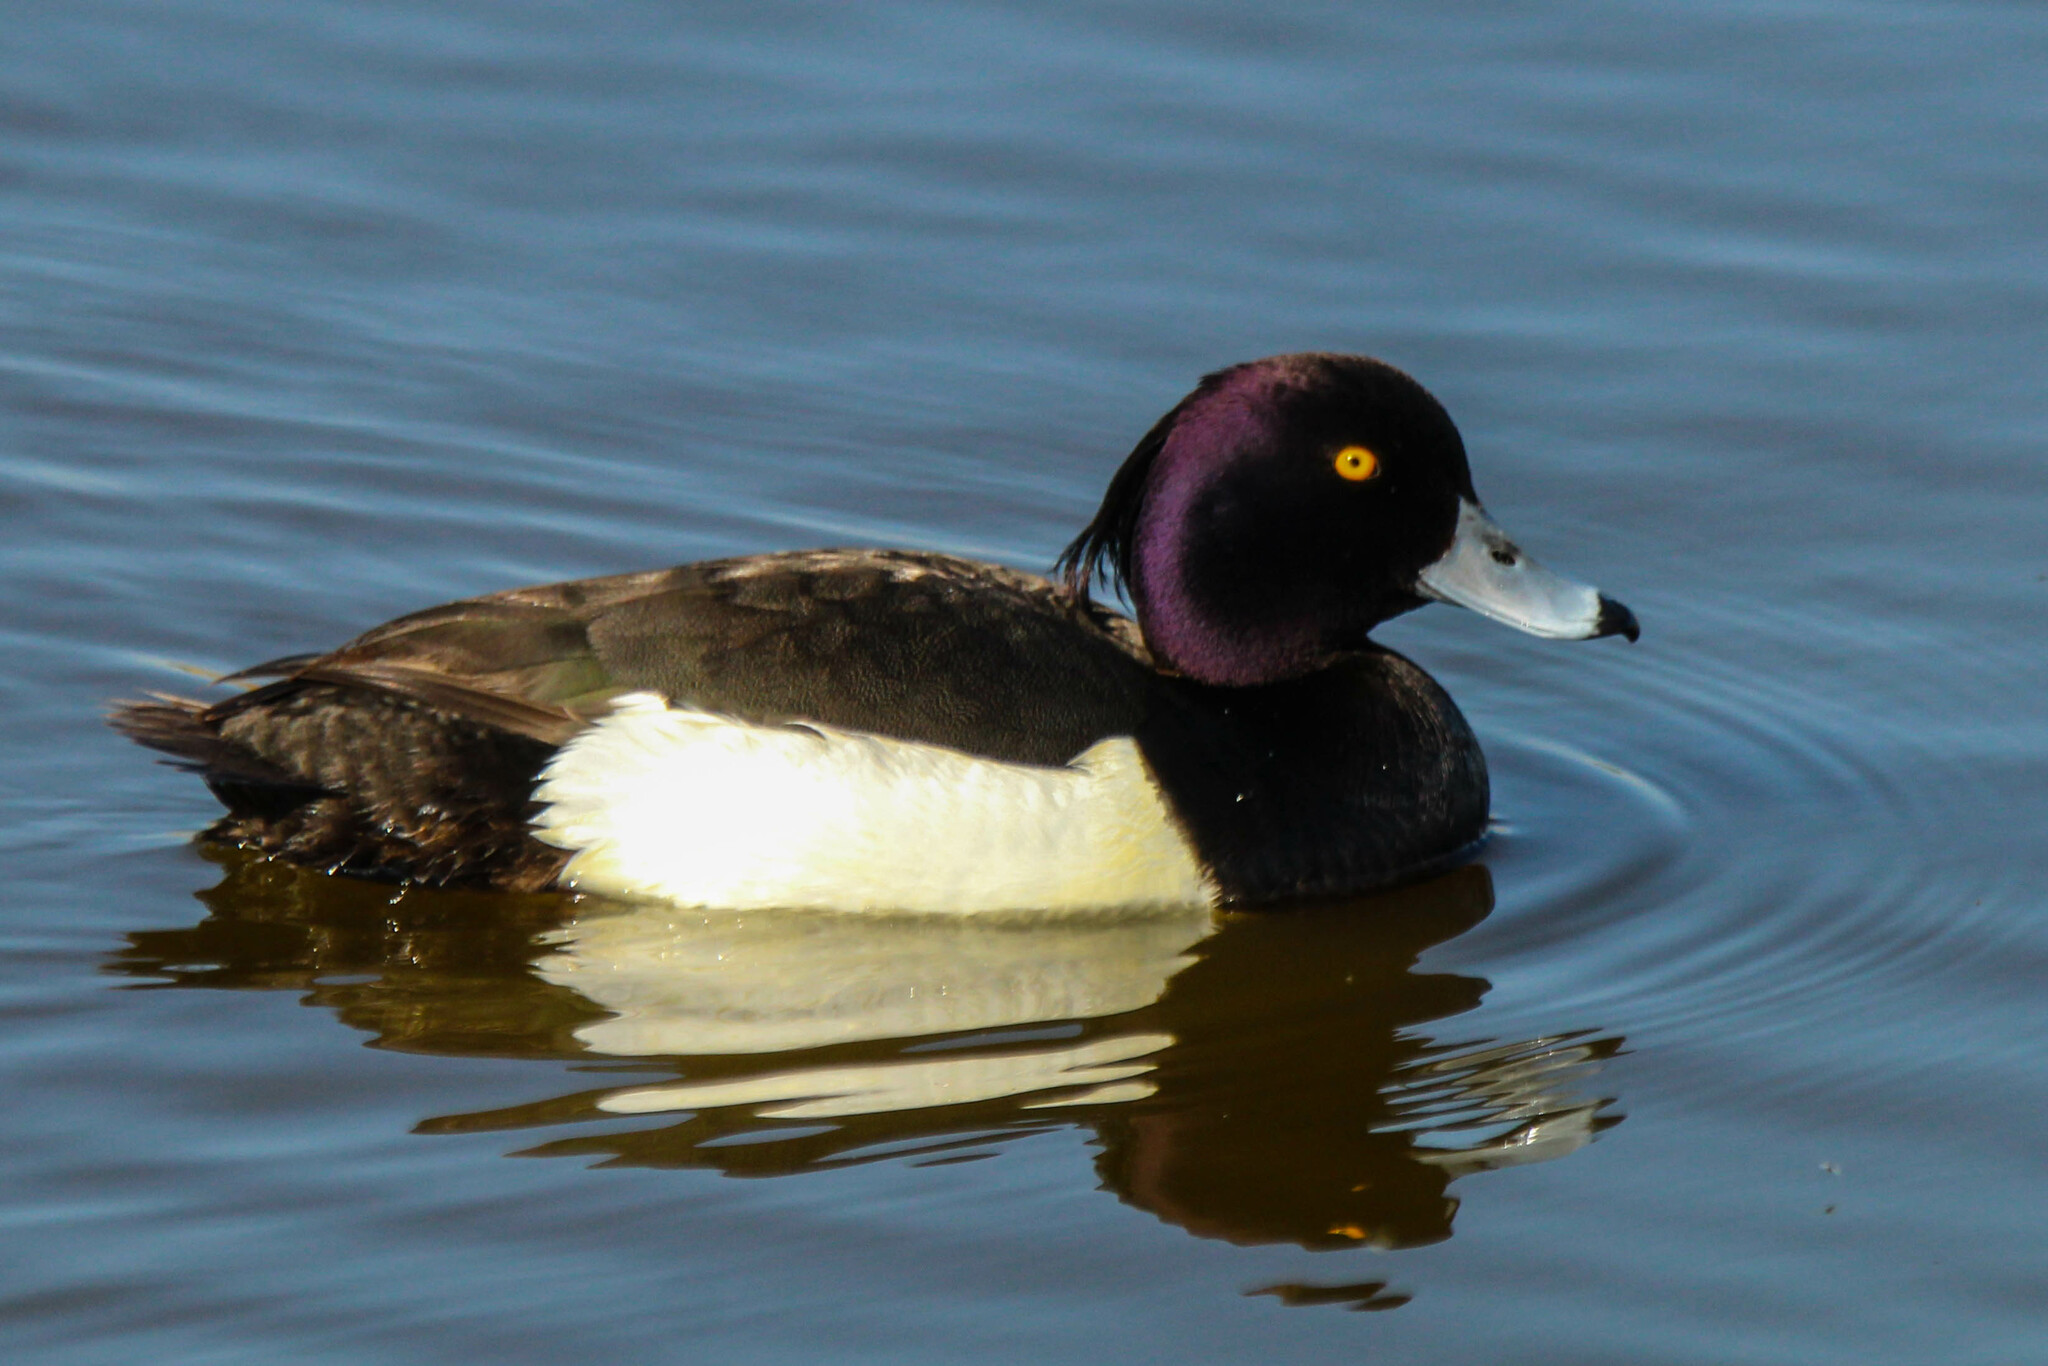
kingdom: Animalia
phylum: Chordata
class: Aves
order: Anseriformes
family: Anatidae
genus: Aythya
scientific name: Aythya fuligula
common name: Tufted duck
